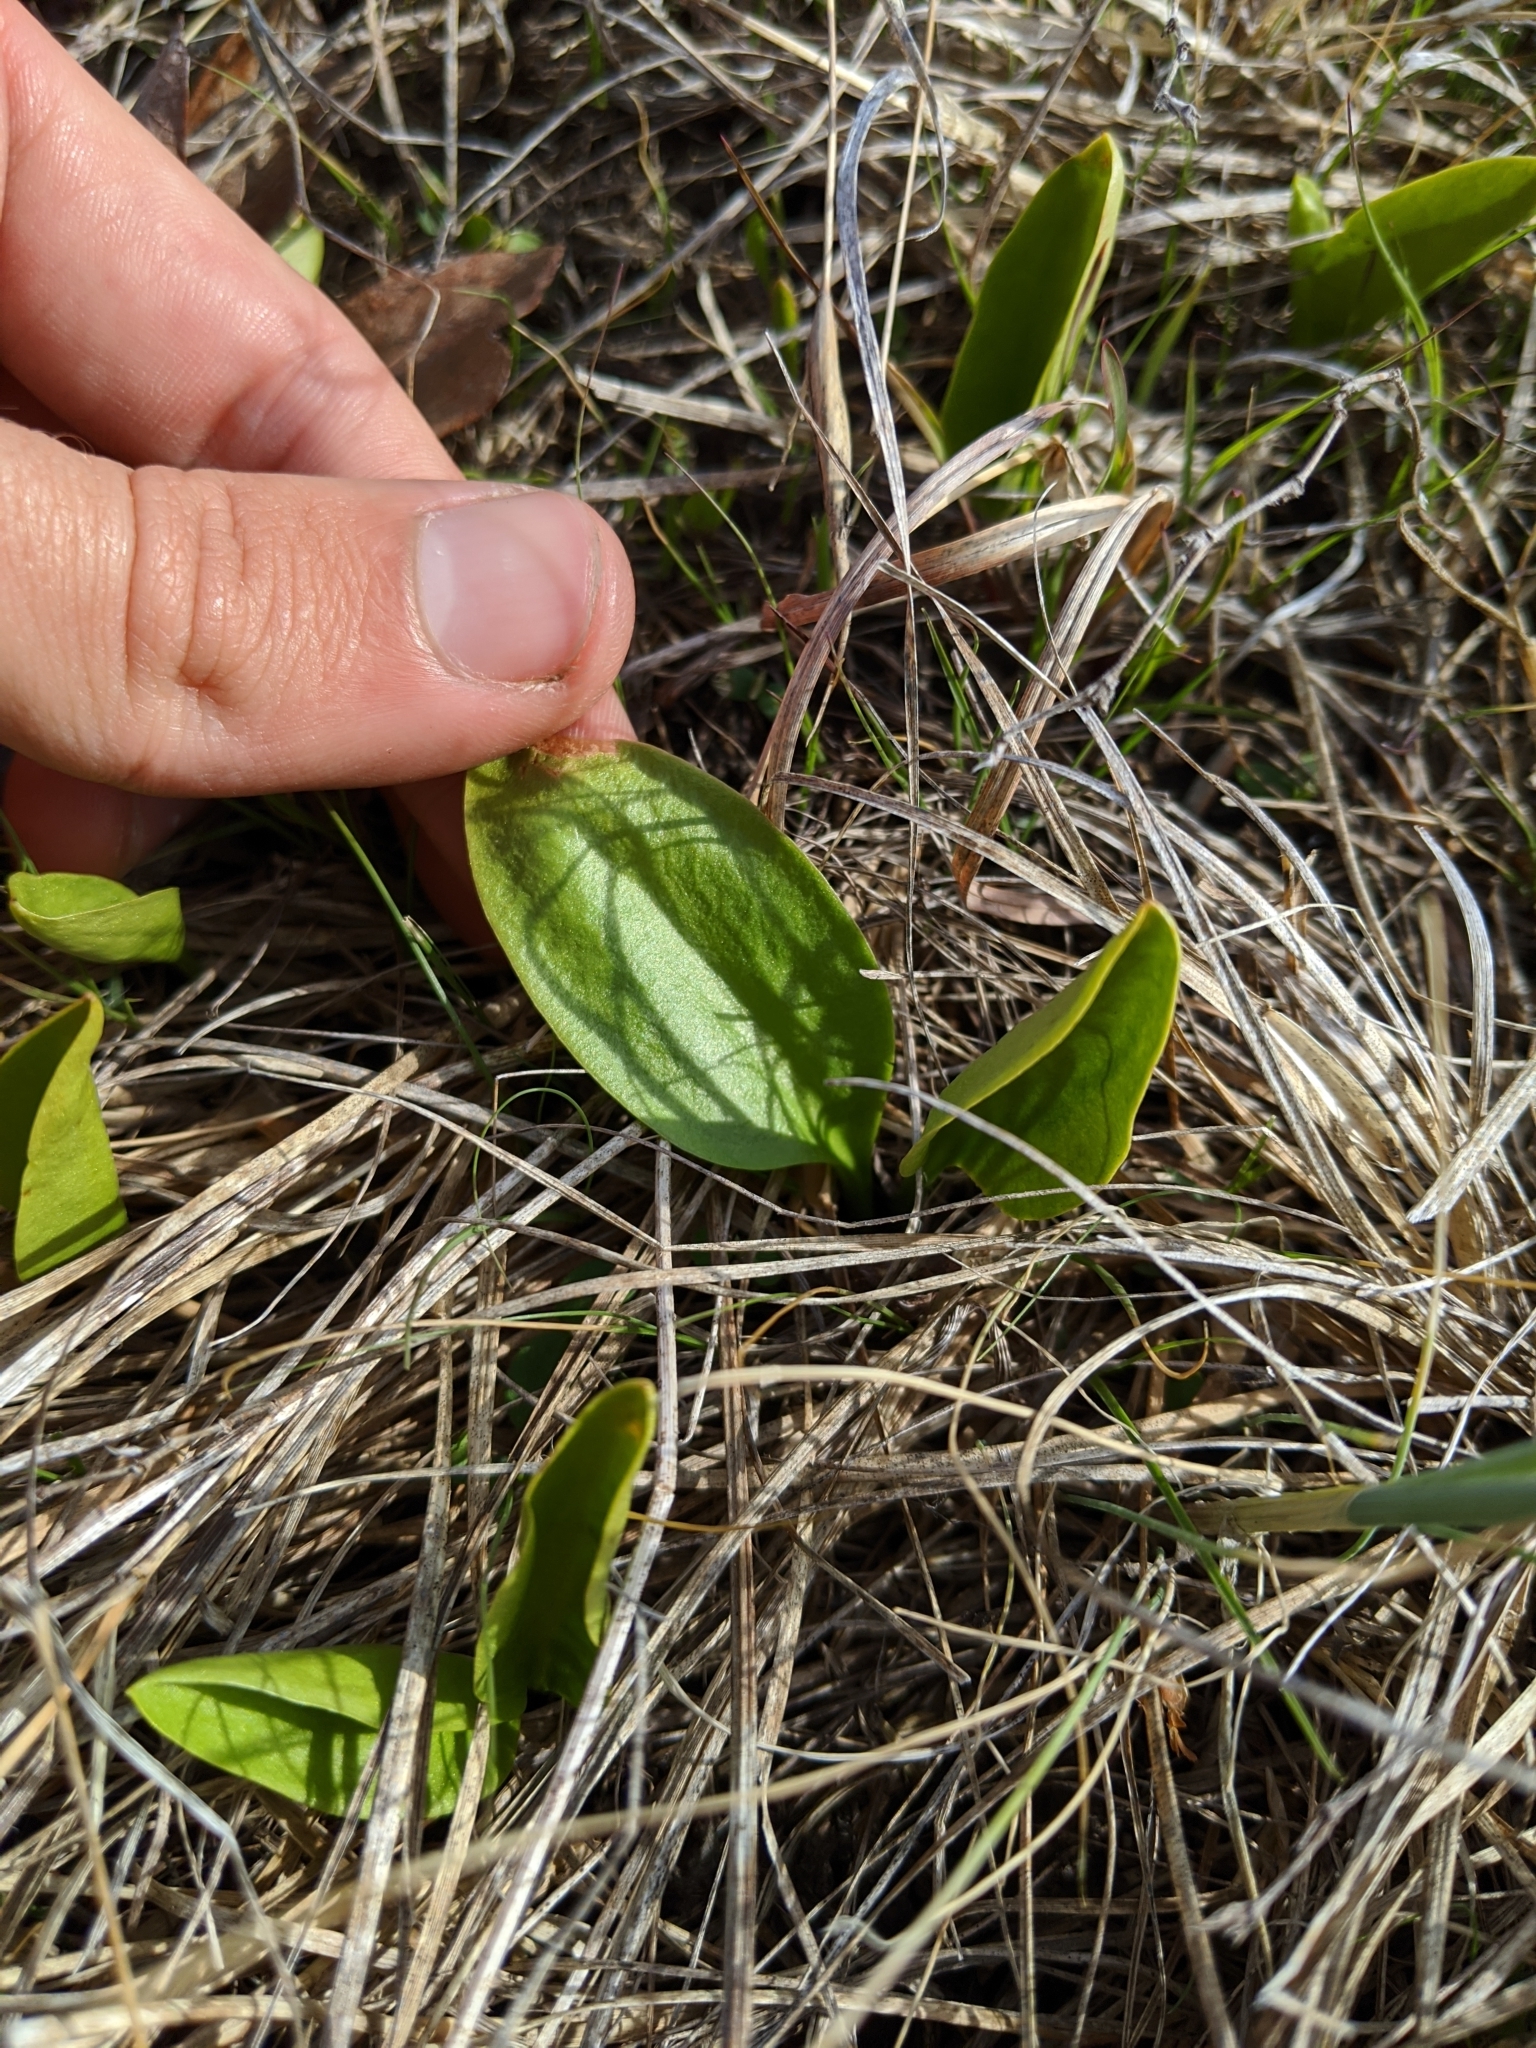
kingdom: Plantae
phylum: Tracheophyta
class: Polypodiopsida
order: Ophioglossales
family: Ophioglossaceae
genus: Ophioglossum
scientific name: Ophioglossum engelmannii
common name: Limestone adder's-tongue
